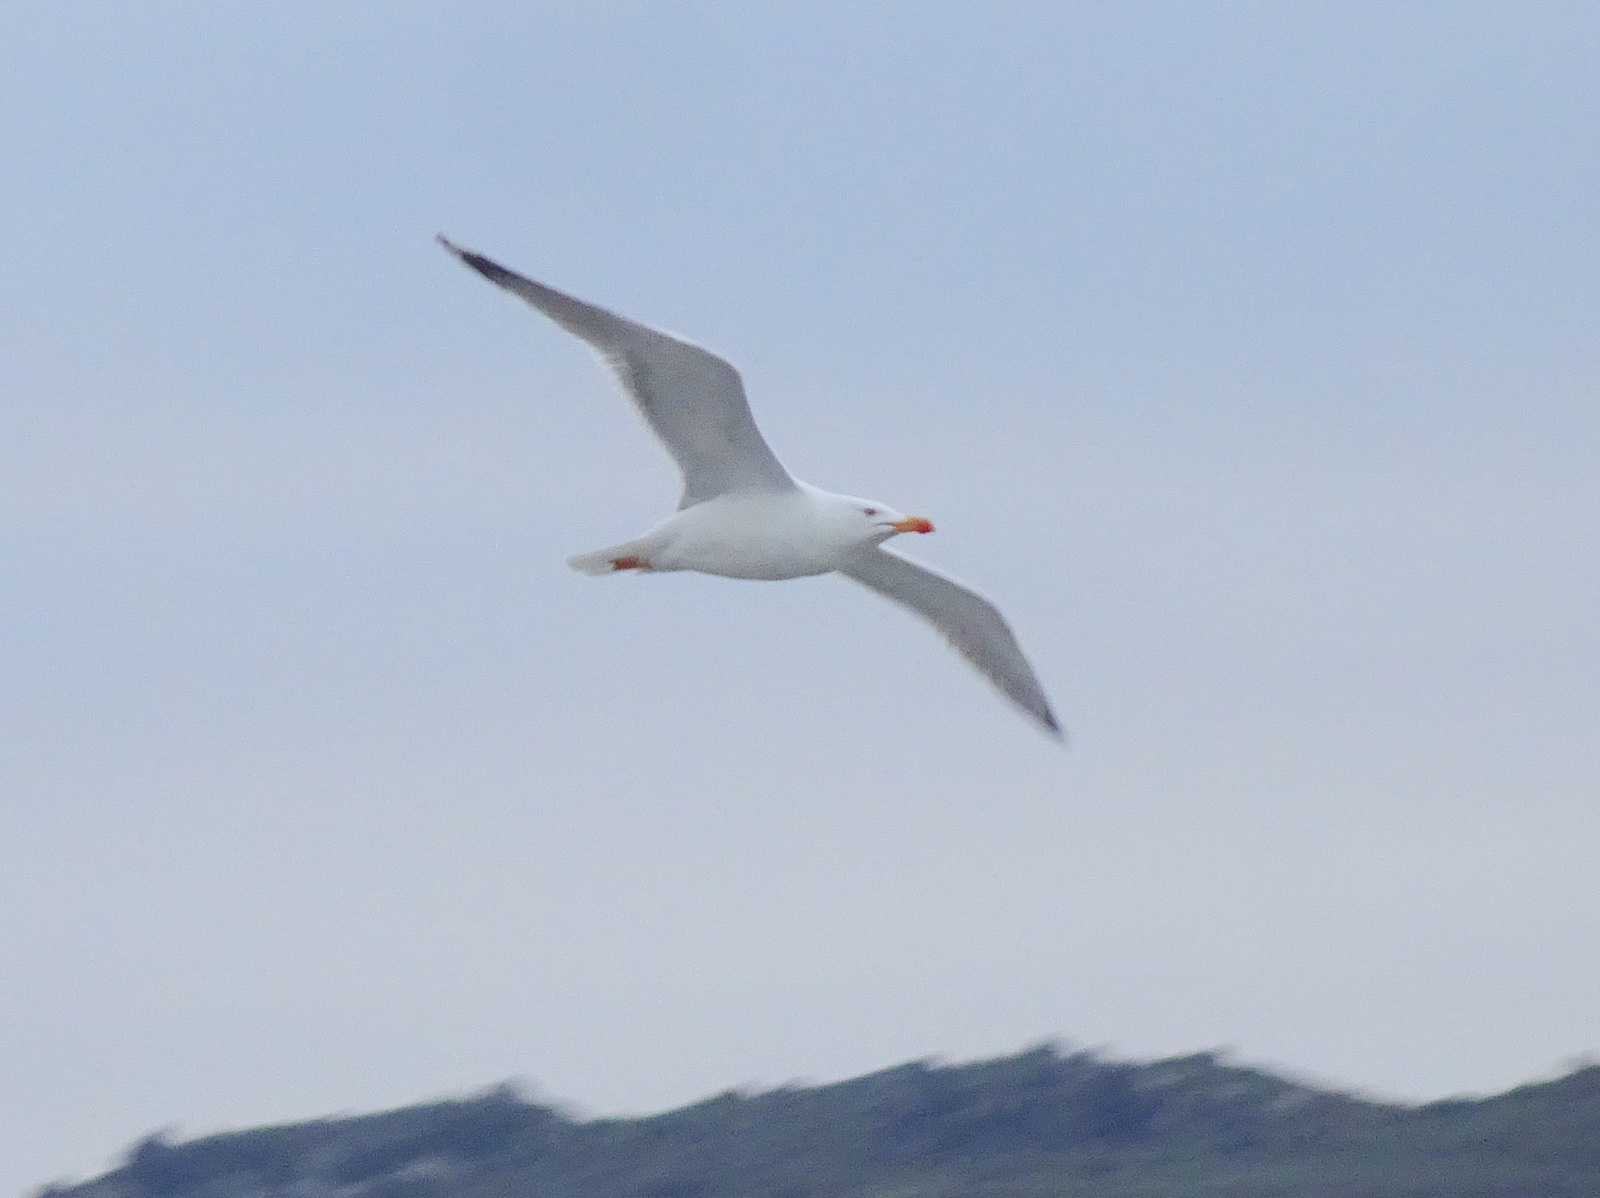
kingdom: Animalia
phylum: Chordata
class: Aves
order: Charadriiformes
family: Laridae
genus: Larus
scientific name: Larus michahellis
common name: Yellow-legged gull
